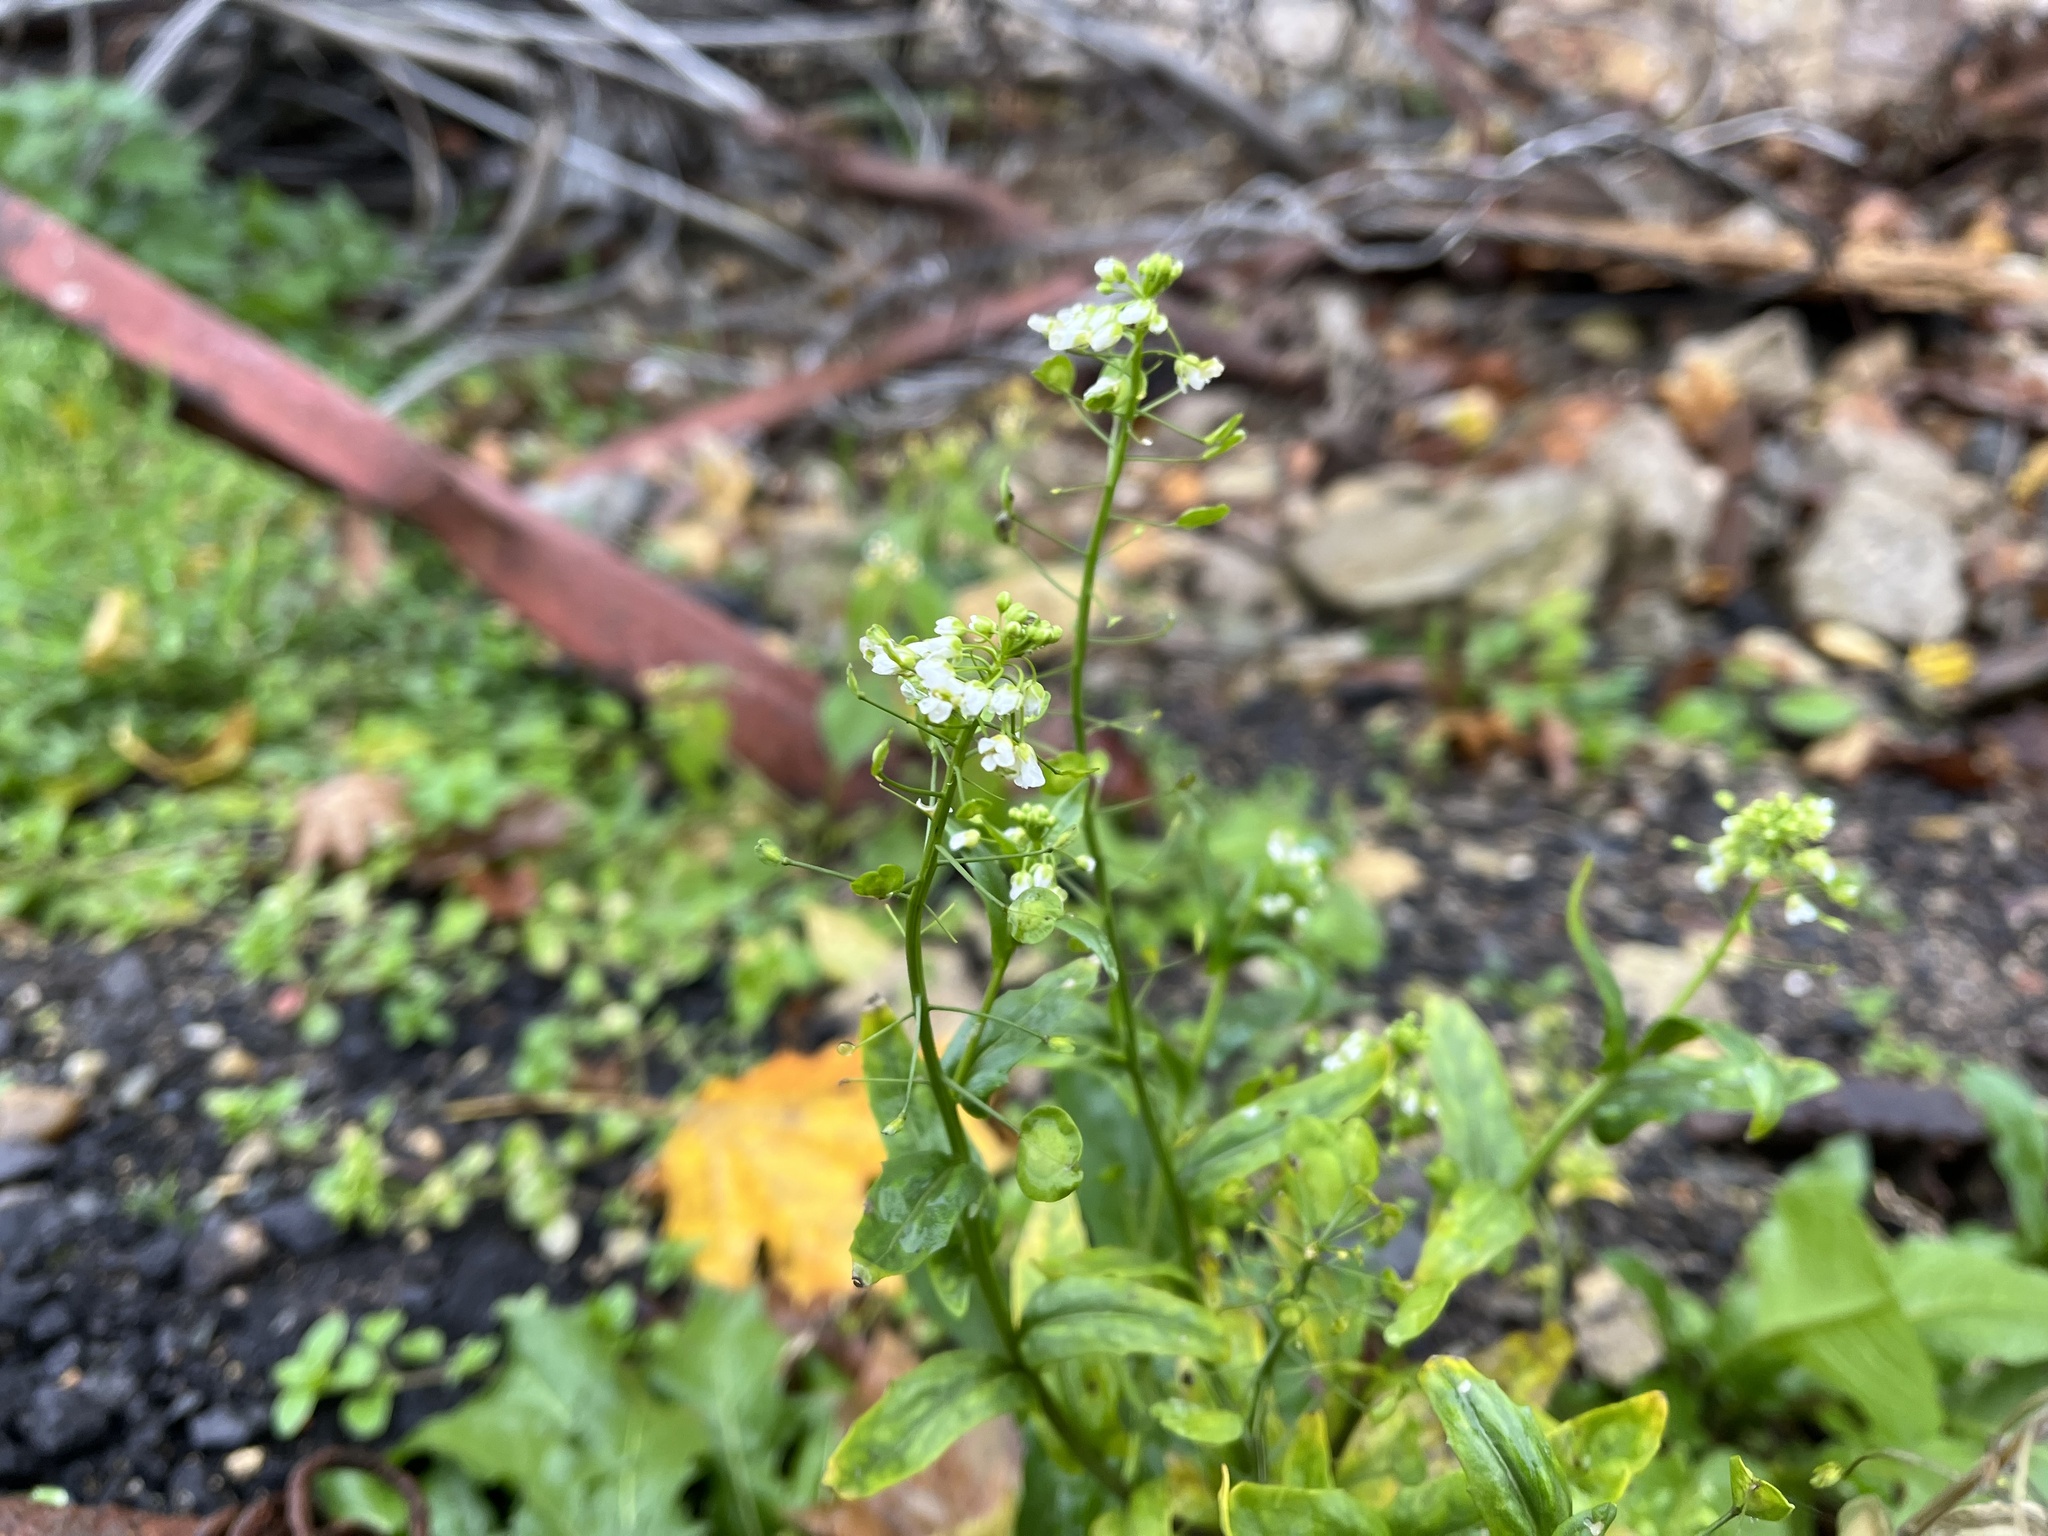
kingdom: Plantae
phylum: Tracheophyta
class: Magnoliopsida
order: Brassicales
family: Brassicaceae
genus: Thlaspi
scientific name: Thlaspi arvense
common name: Field pennycress
